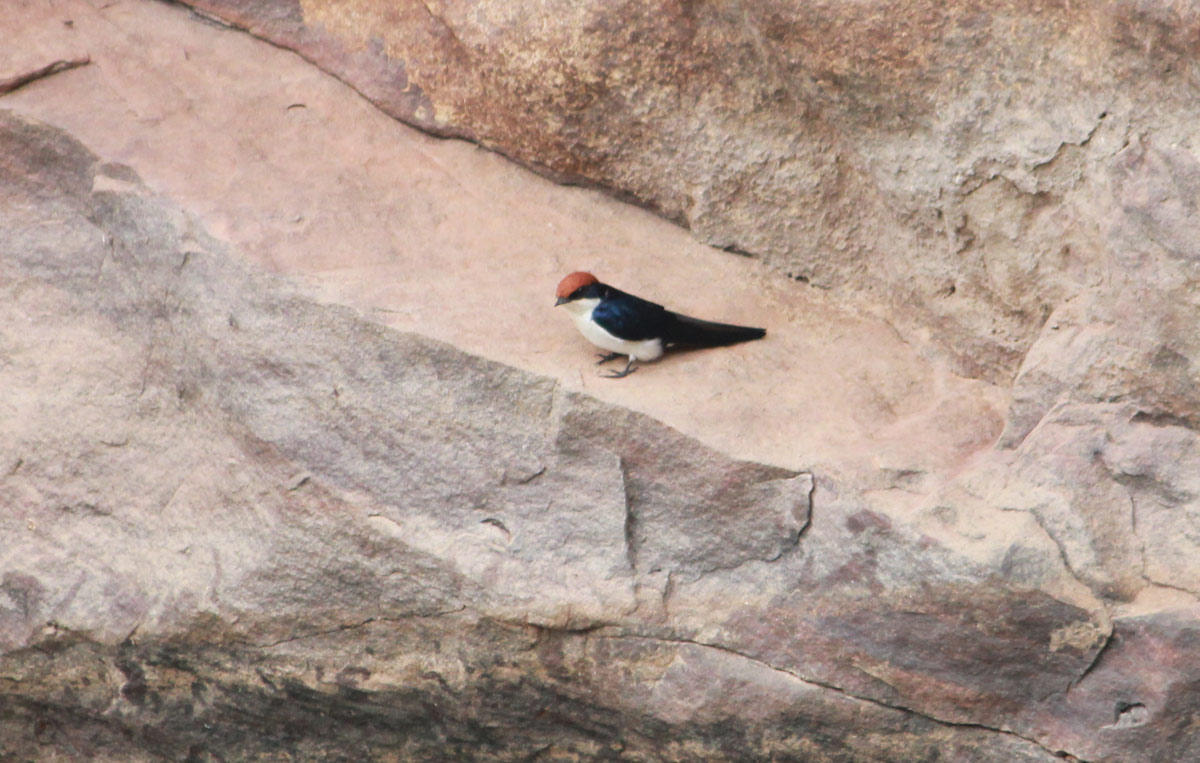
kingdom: Animalia
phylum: Chordata
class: Aves
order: Passeriformes
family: Hirundinidae
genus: Hirundo
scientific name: Hirundo smithii
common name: Wire-tailed swallow
